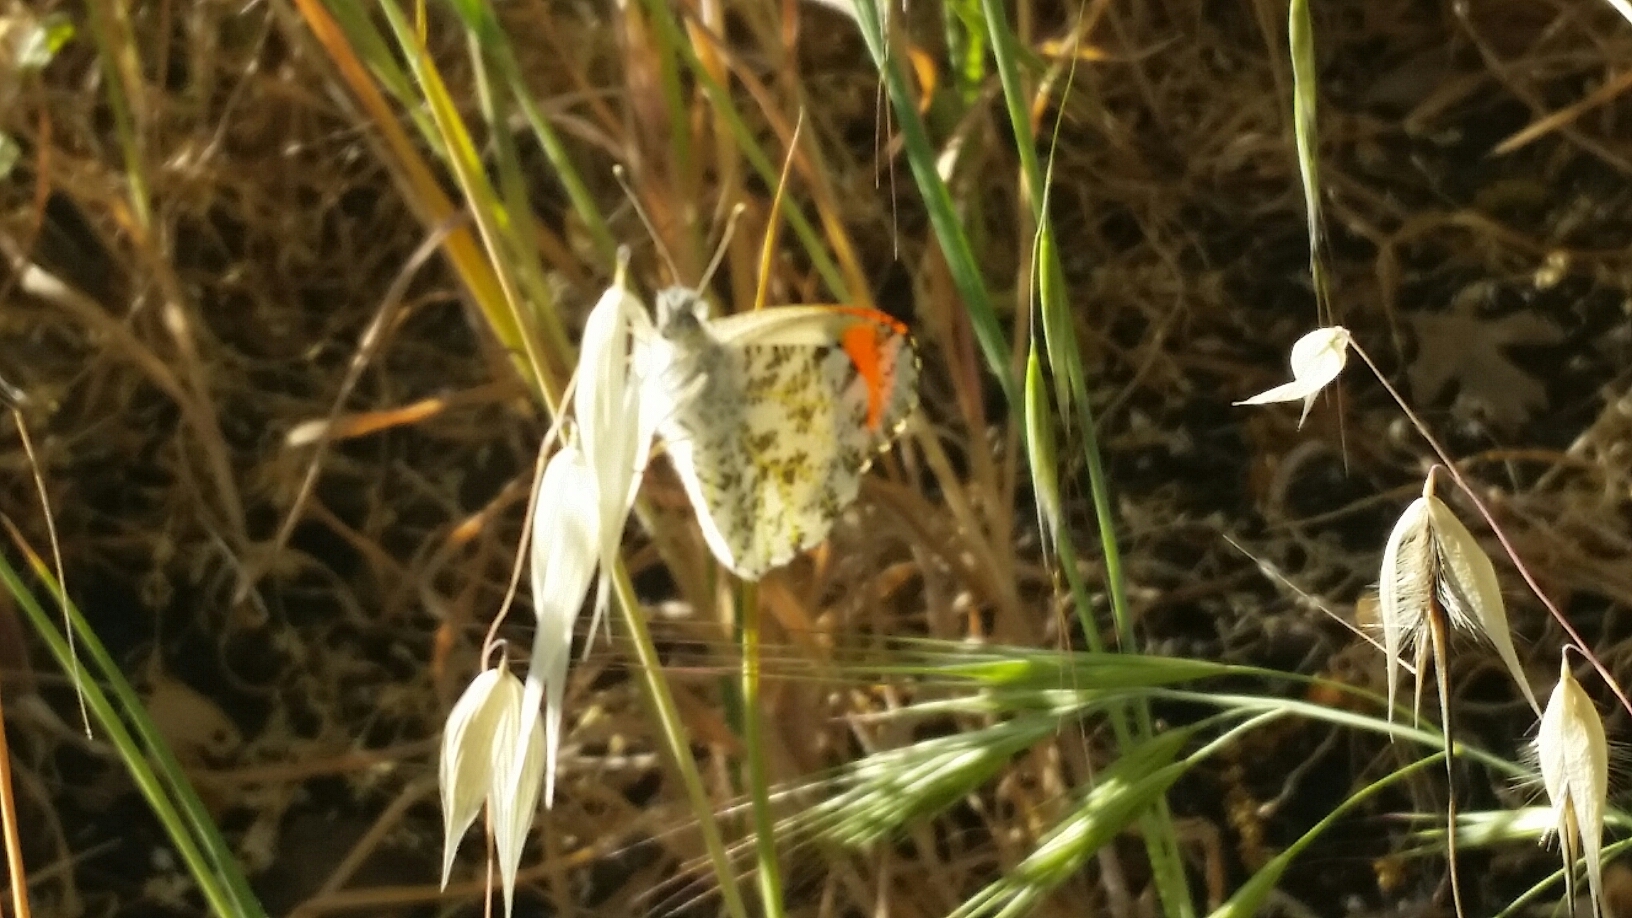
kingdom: Animalia
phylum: Arthropoda
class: Insecta
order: Lepidoptera
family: Pieridae
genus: Anthocharis
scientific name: Anthocharis sara
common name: Sara's orangetip
